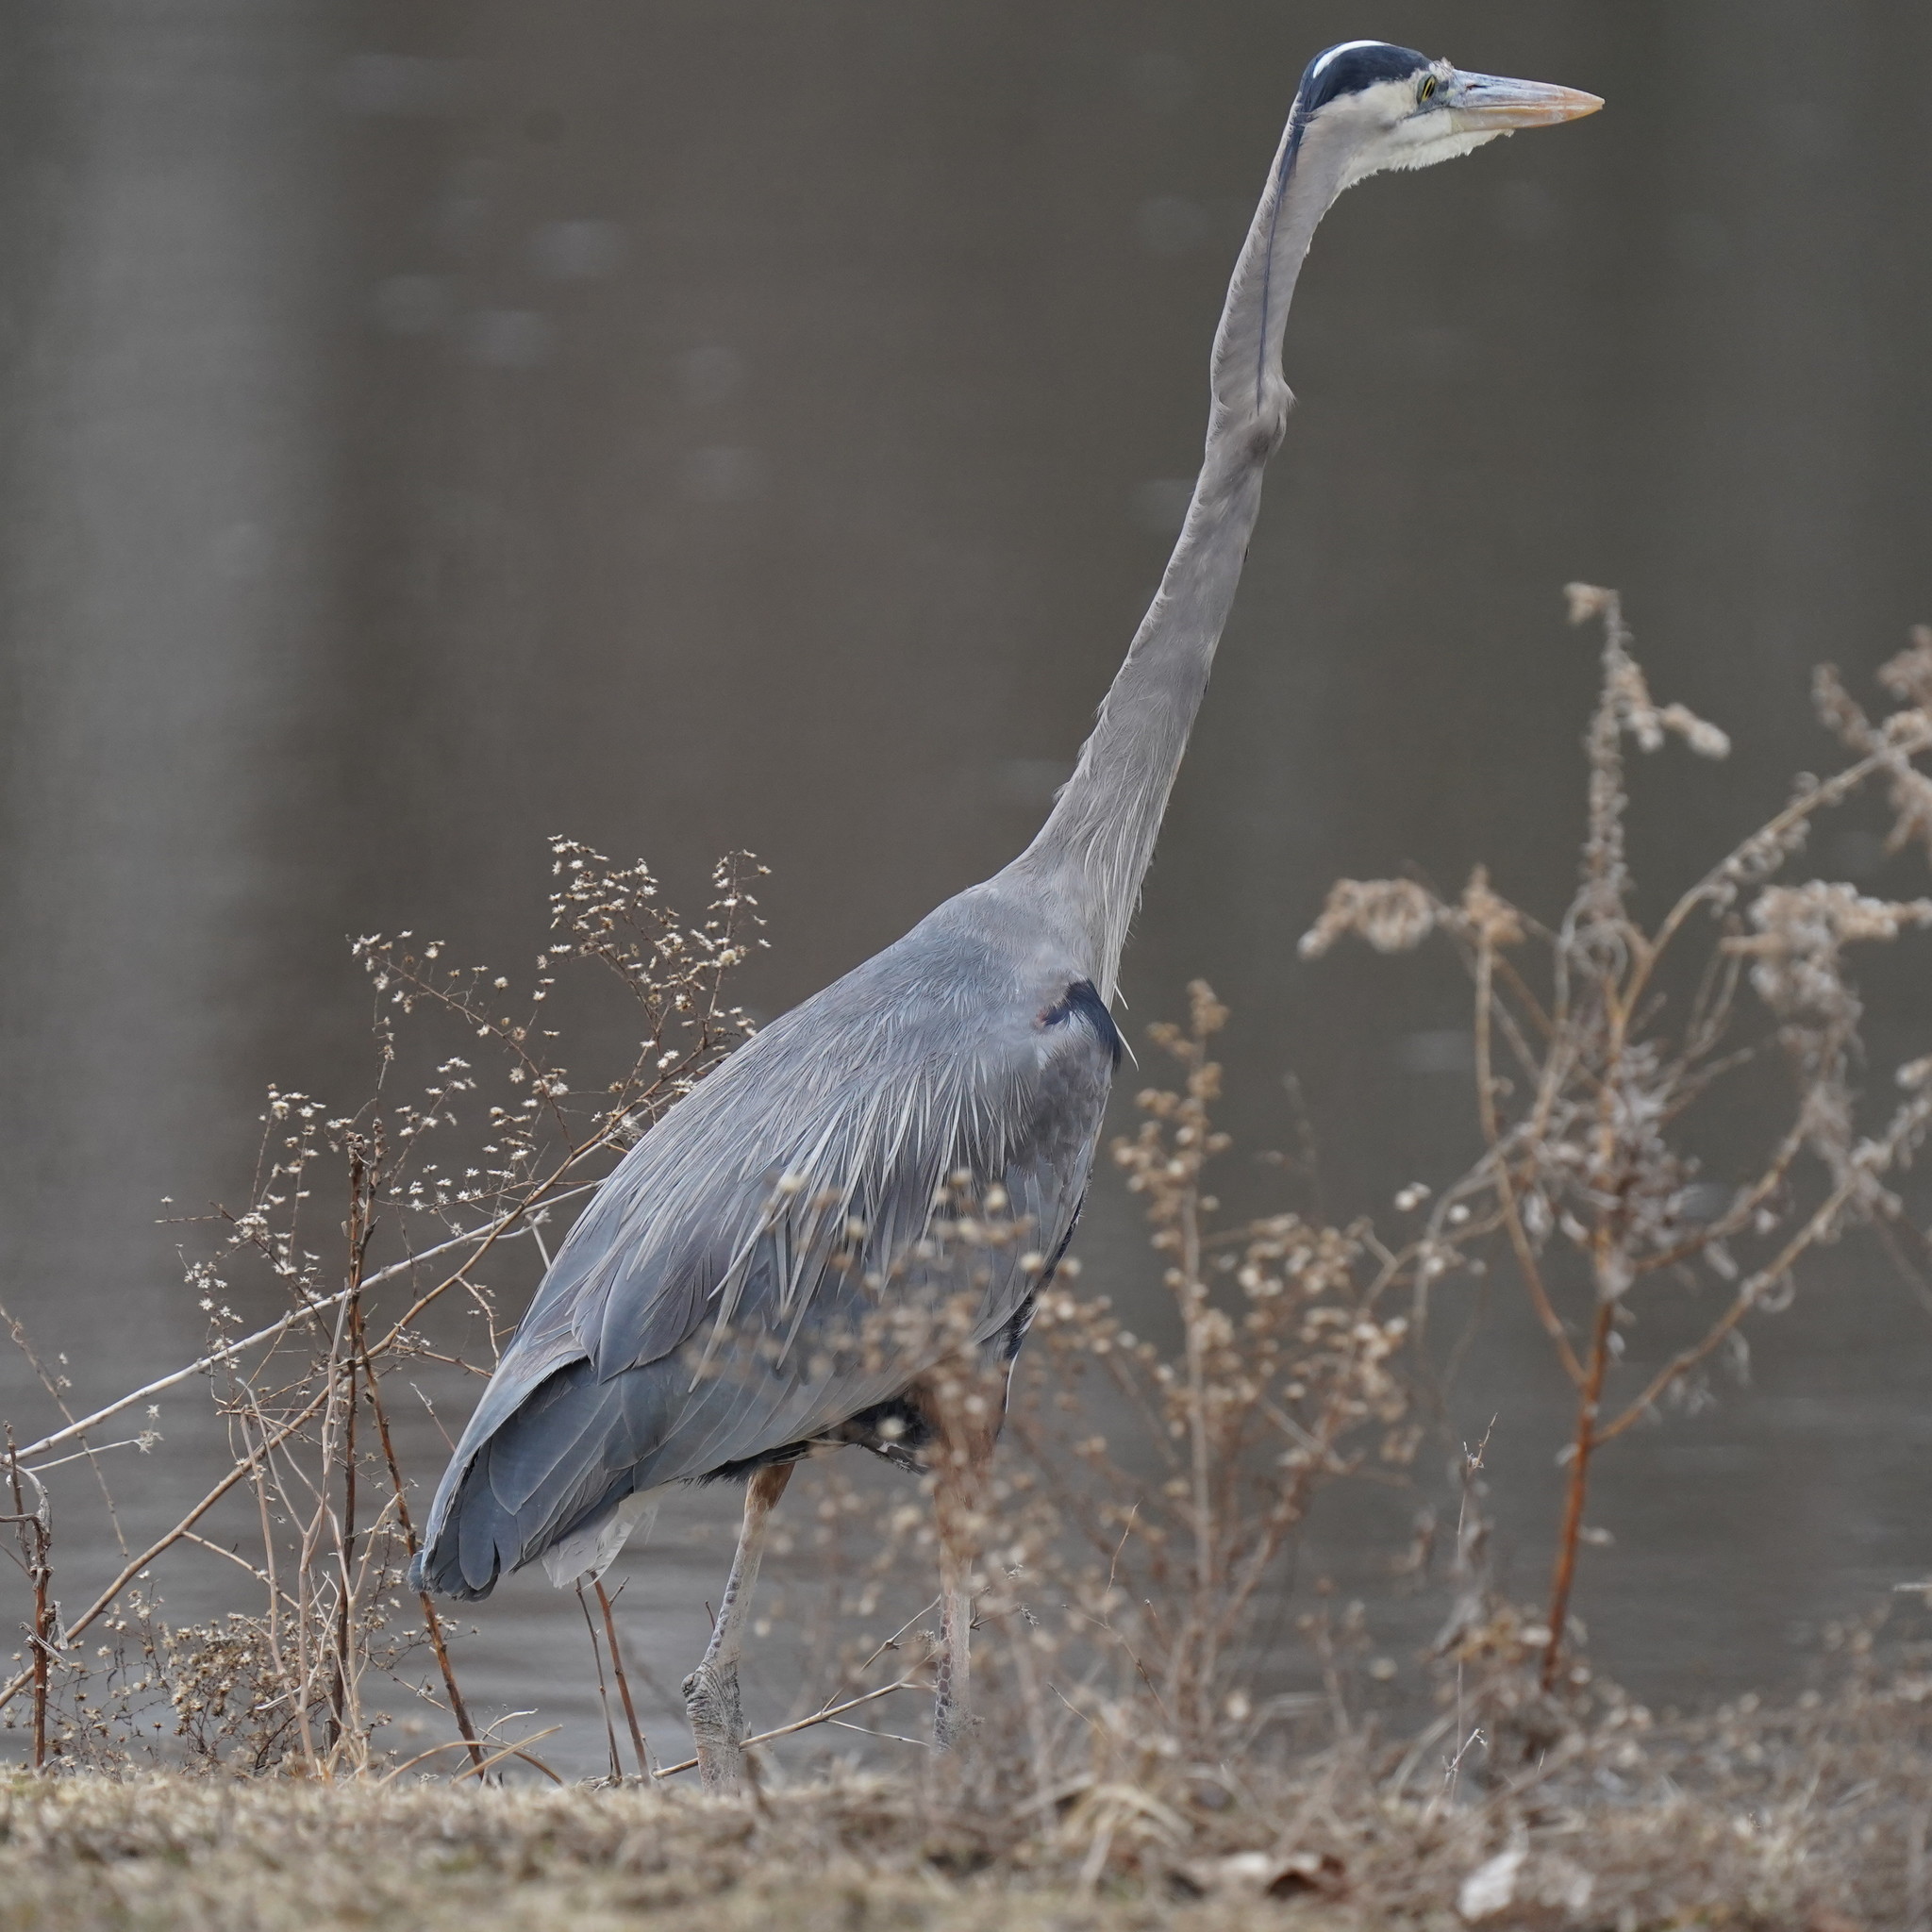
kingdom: Animalia
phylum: Chordata
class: Aves
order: Pelecaniformes
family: Ardeidae
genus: Ardea
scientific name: Ardea herodias
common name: Great blue heron
